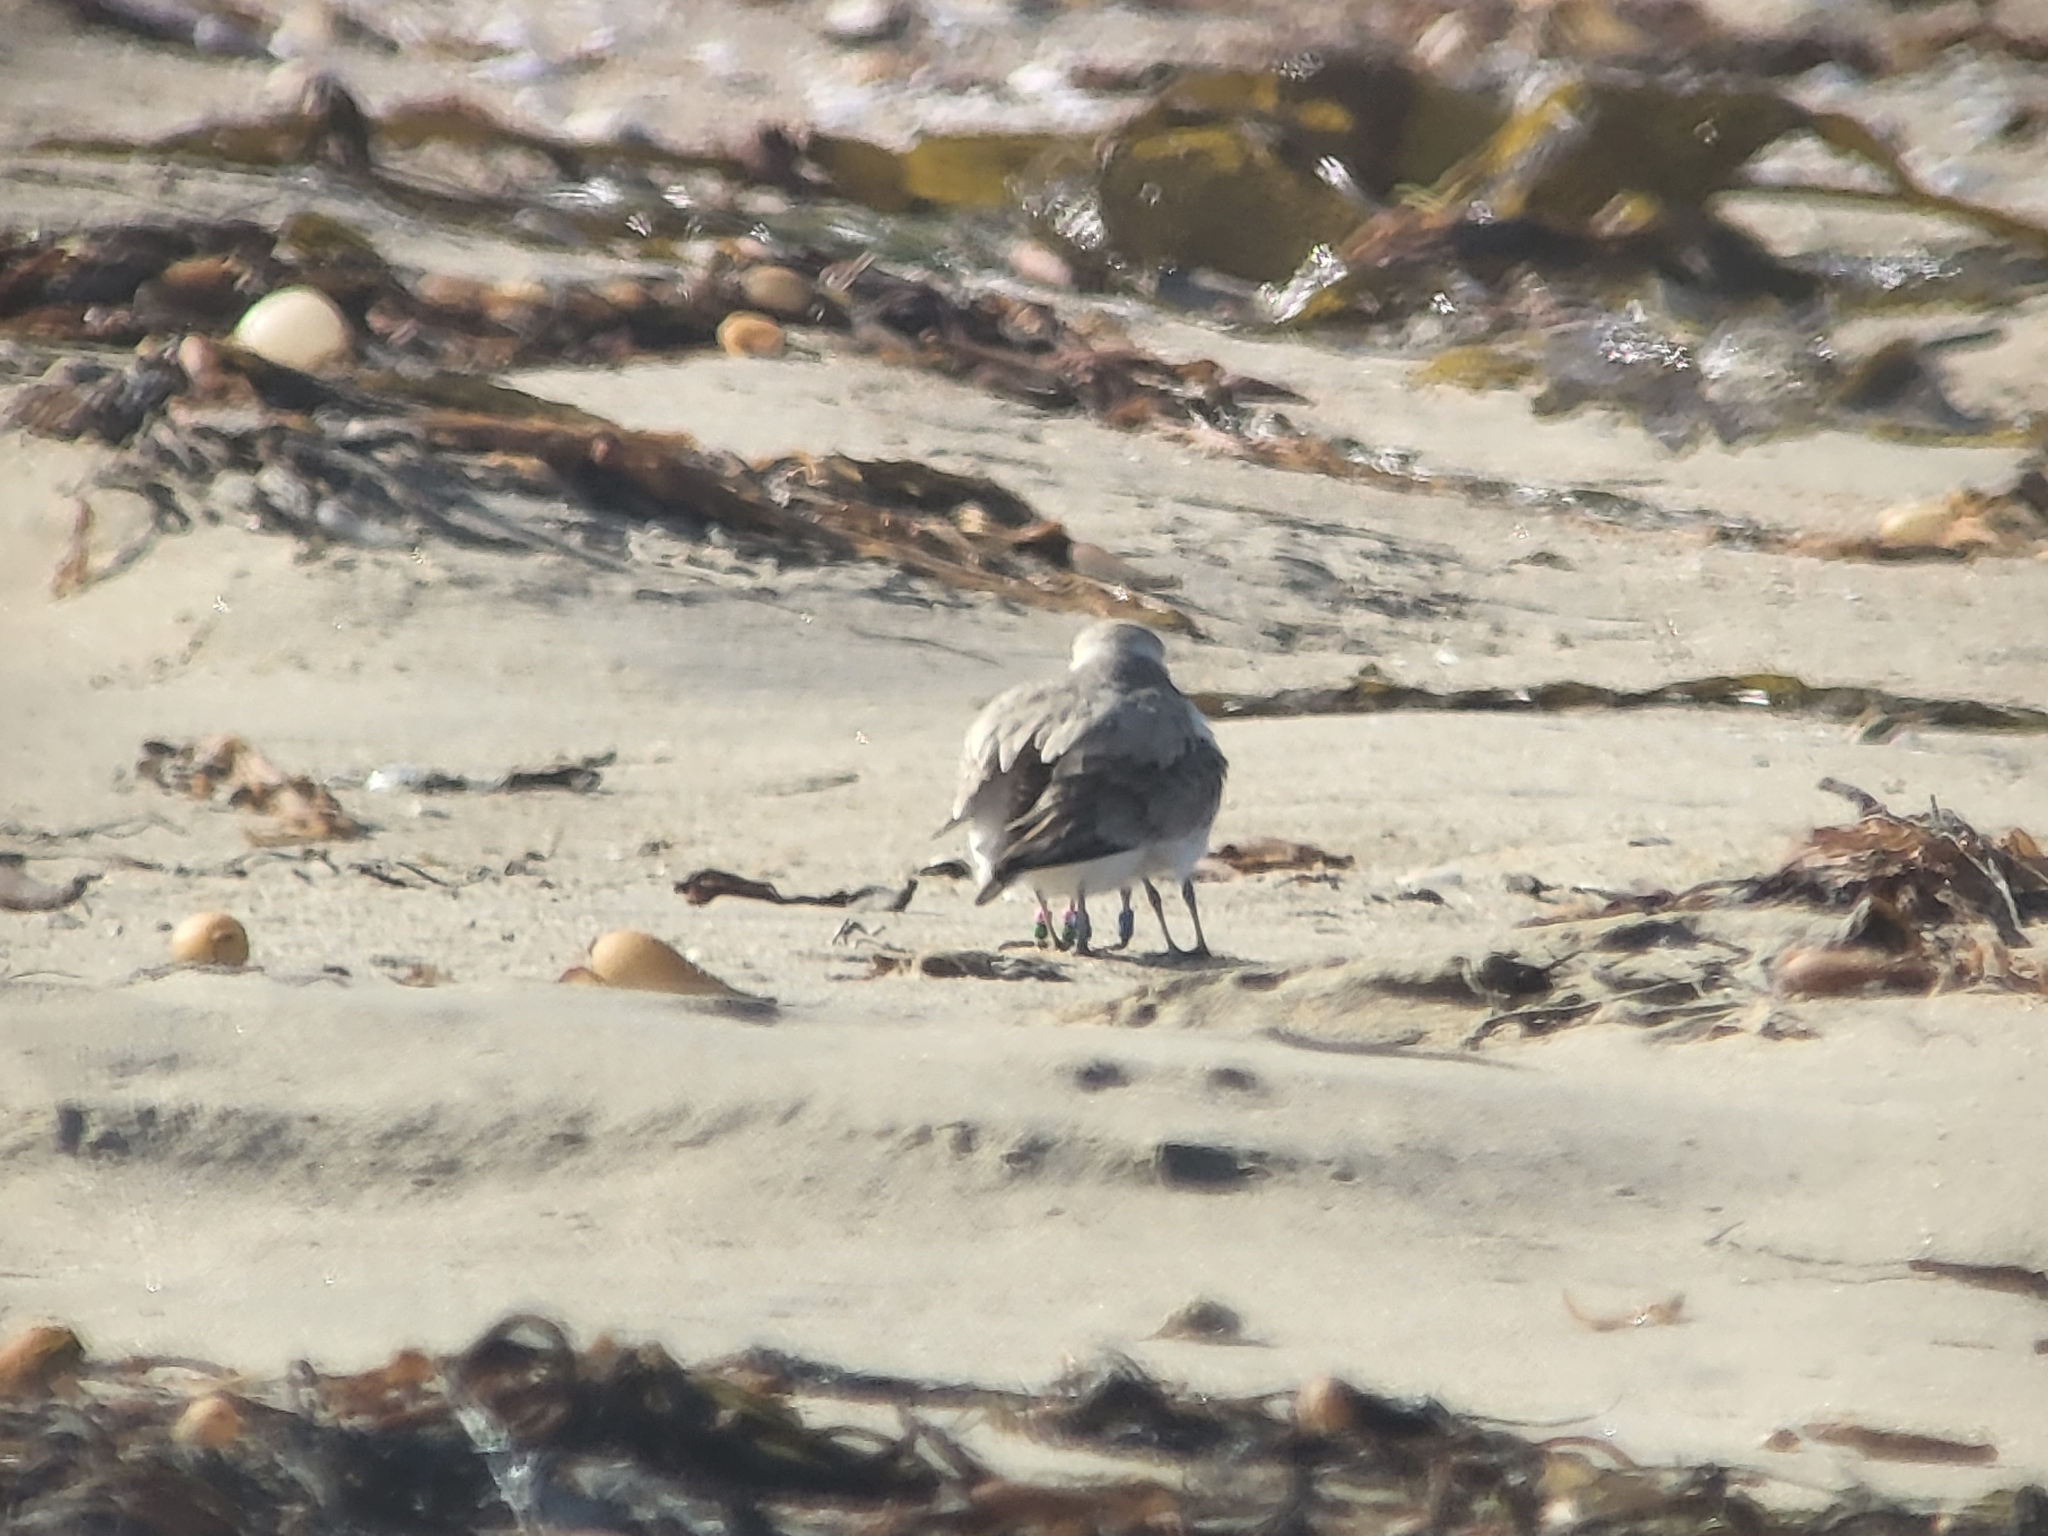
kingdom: Animalia
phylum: Chordata
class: Aves
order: Charadriiformes
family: Charadriidae
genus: Anarhynchus
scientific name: Anarhynchus
